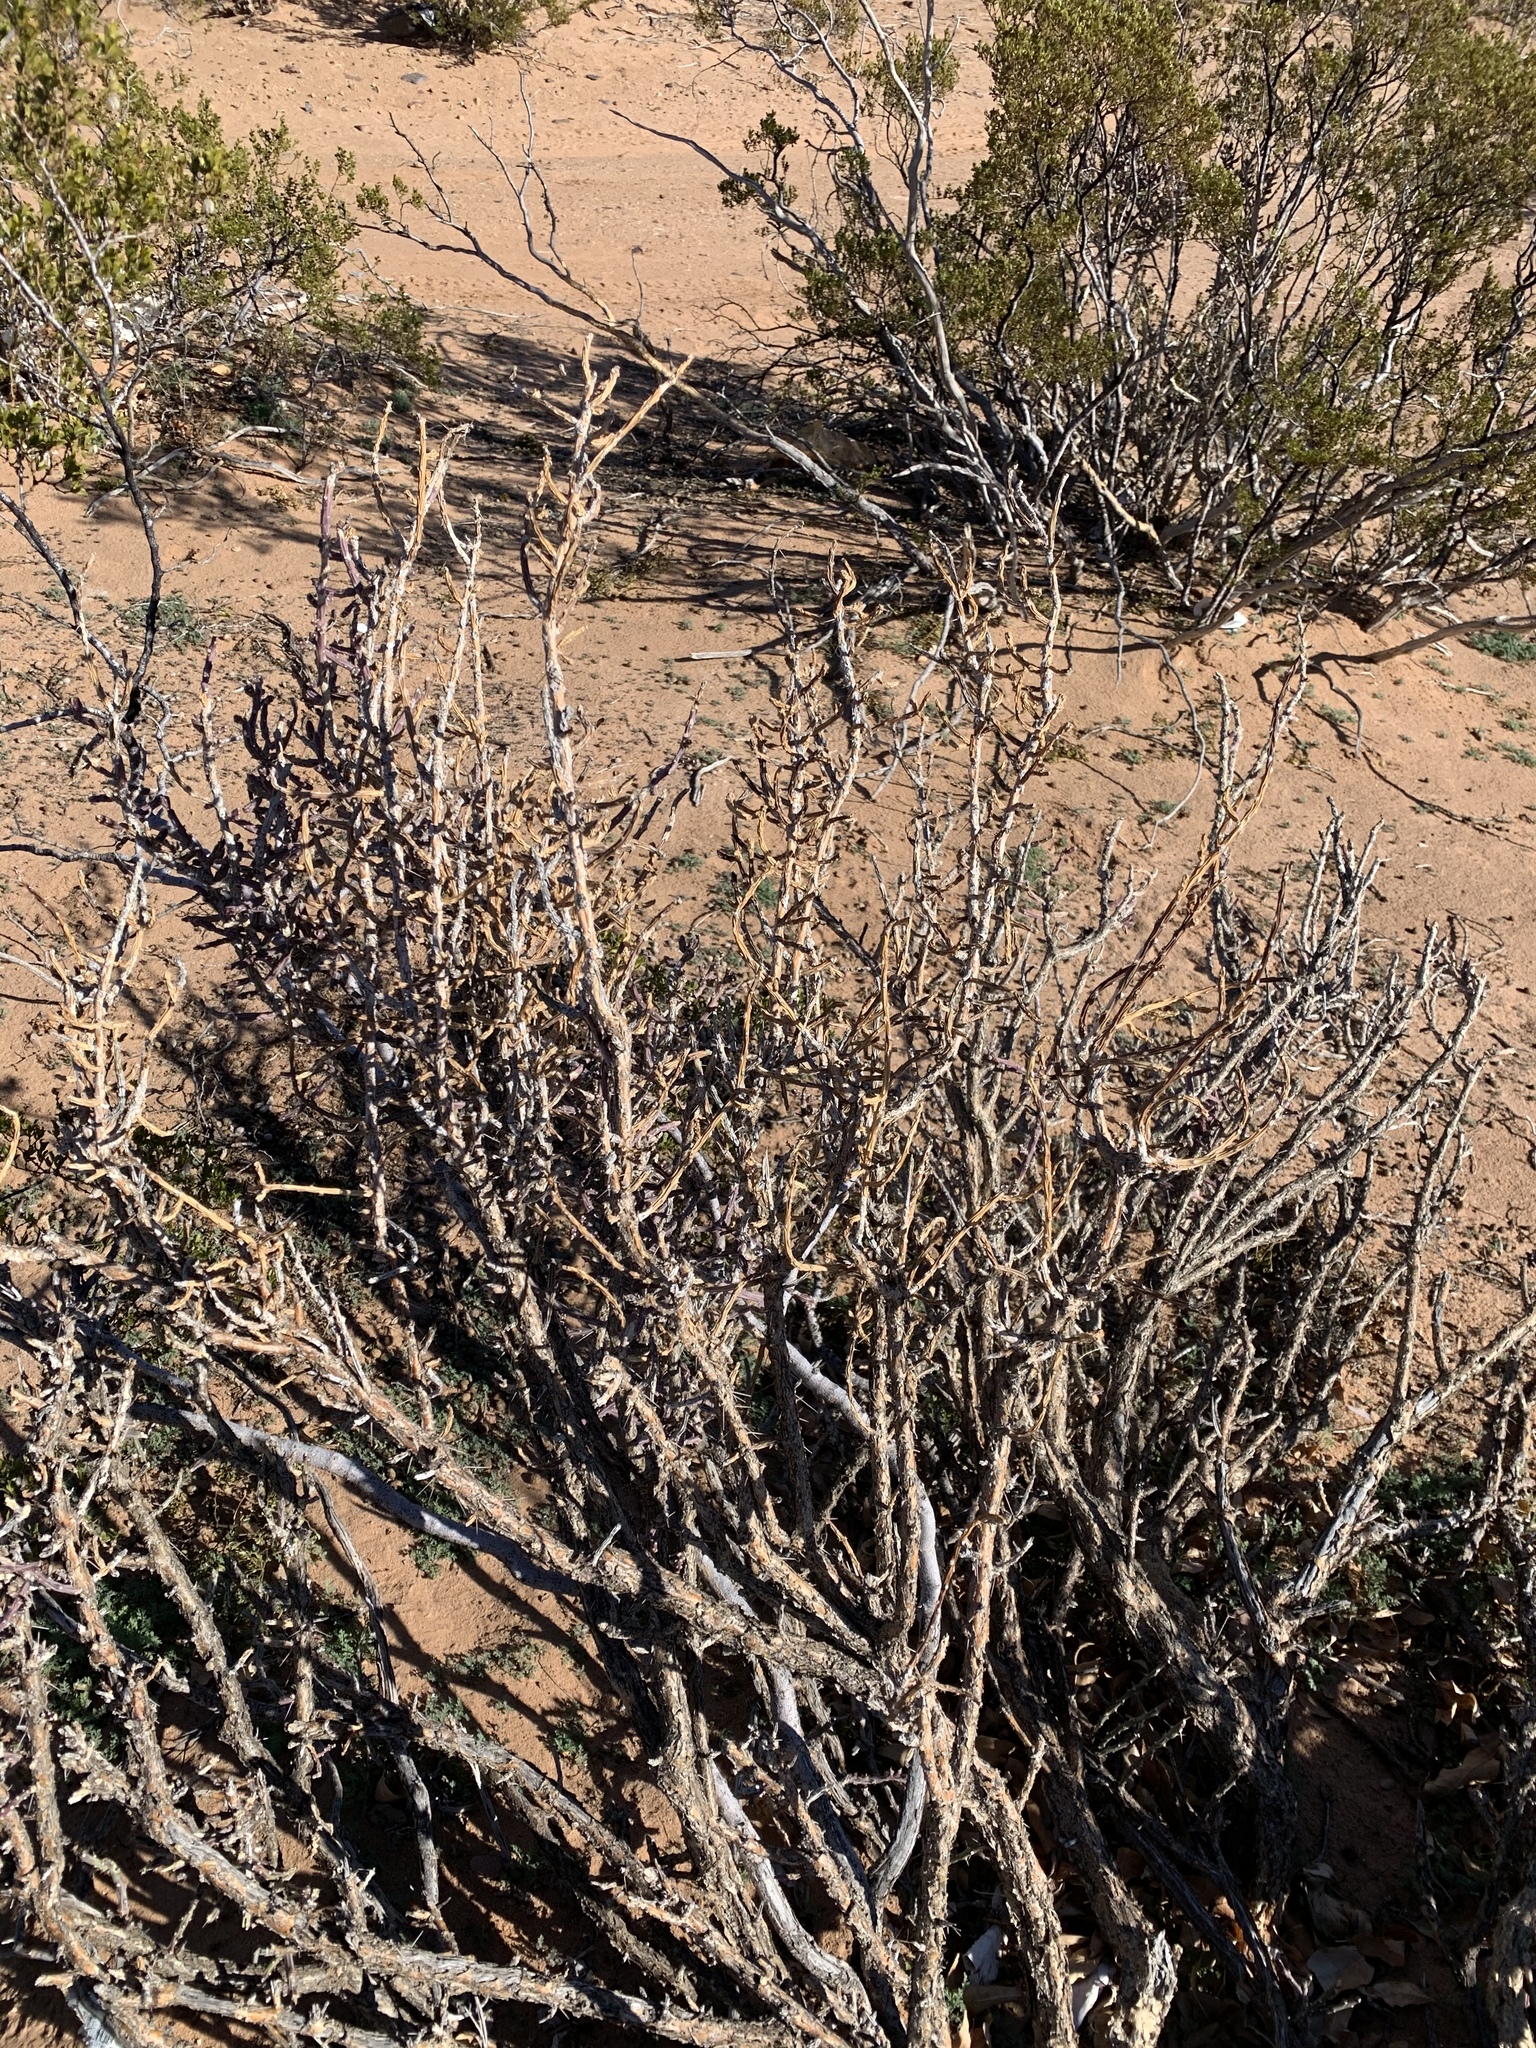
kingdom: Plantae
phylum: Tracheophyta
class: Magnoliopsida
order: Caryophyllales
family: Cactaceae
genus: Cylindropuntia
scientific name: Cylindropuntia leptocaulis
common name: Christmas cactus
